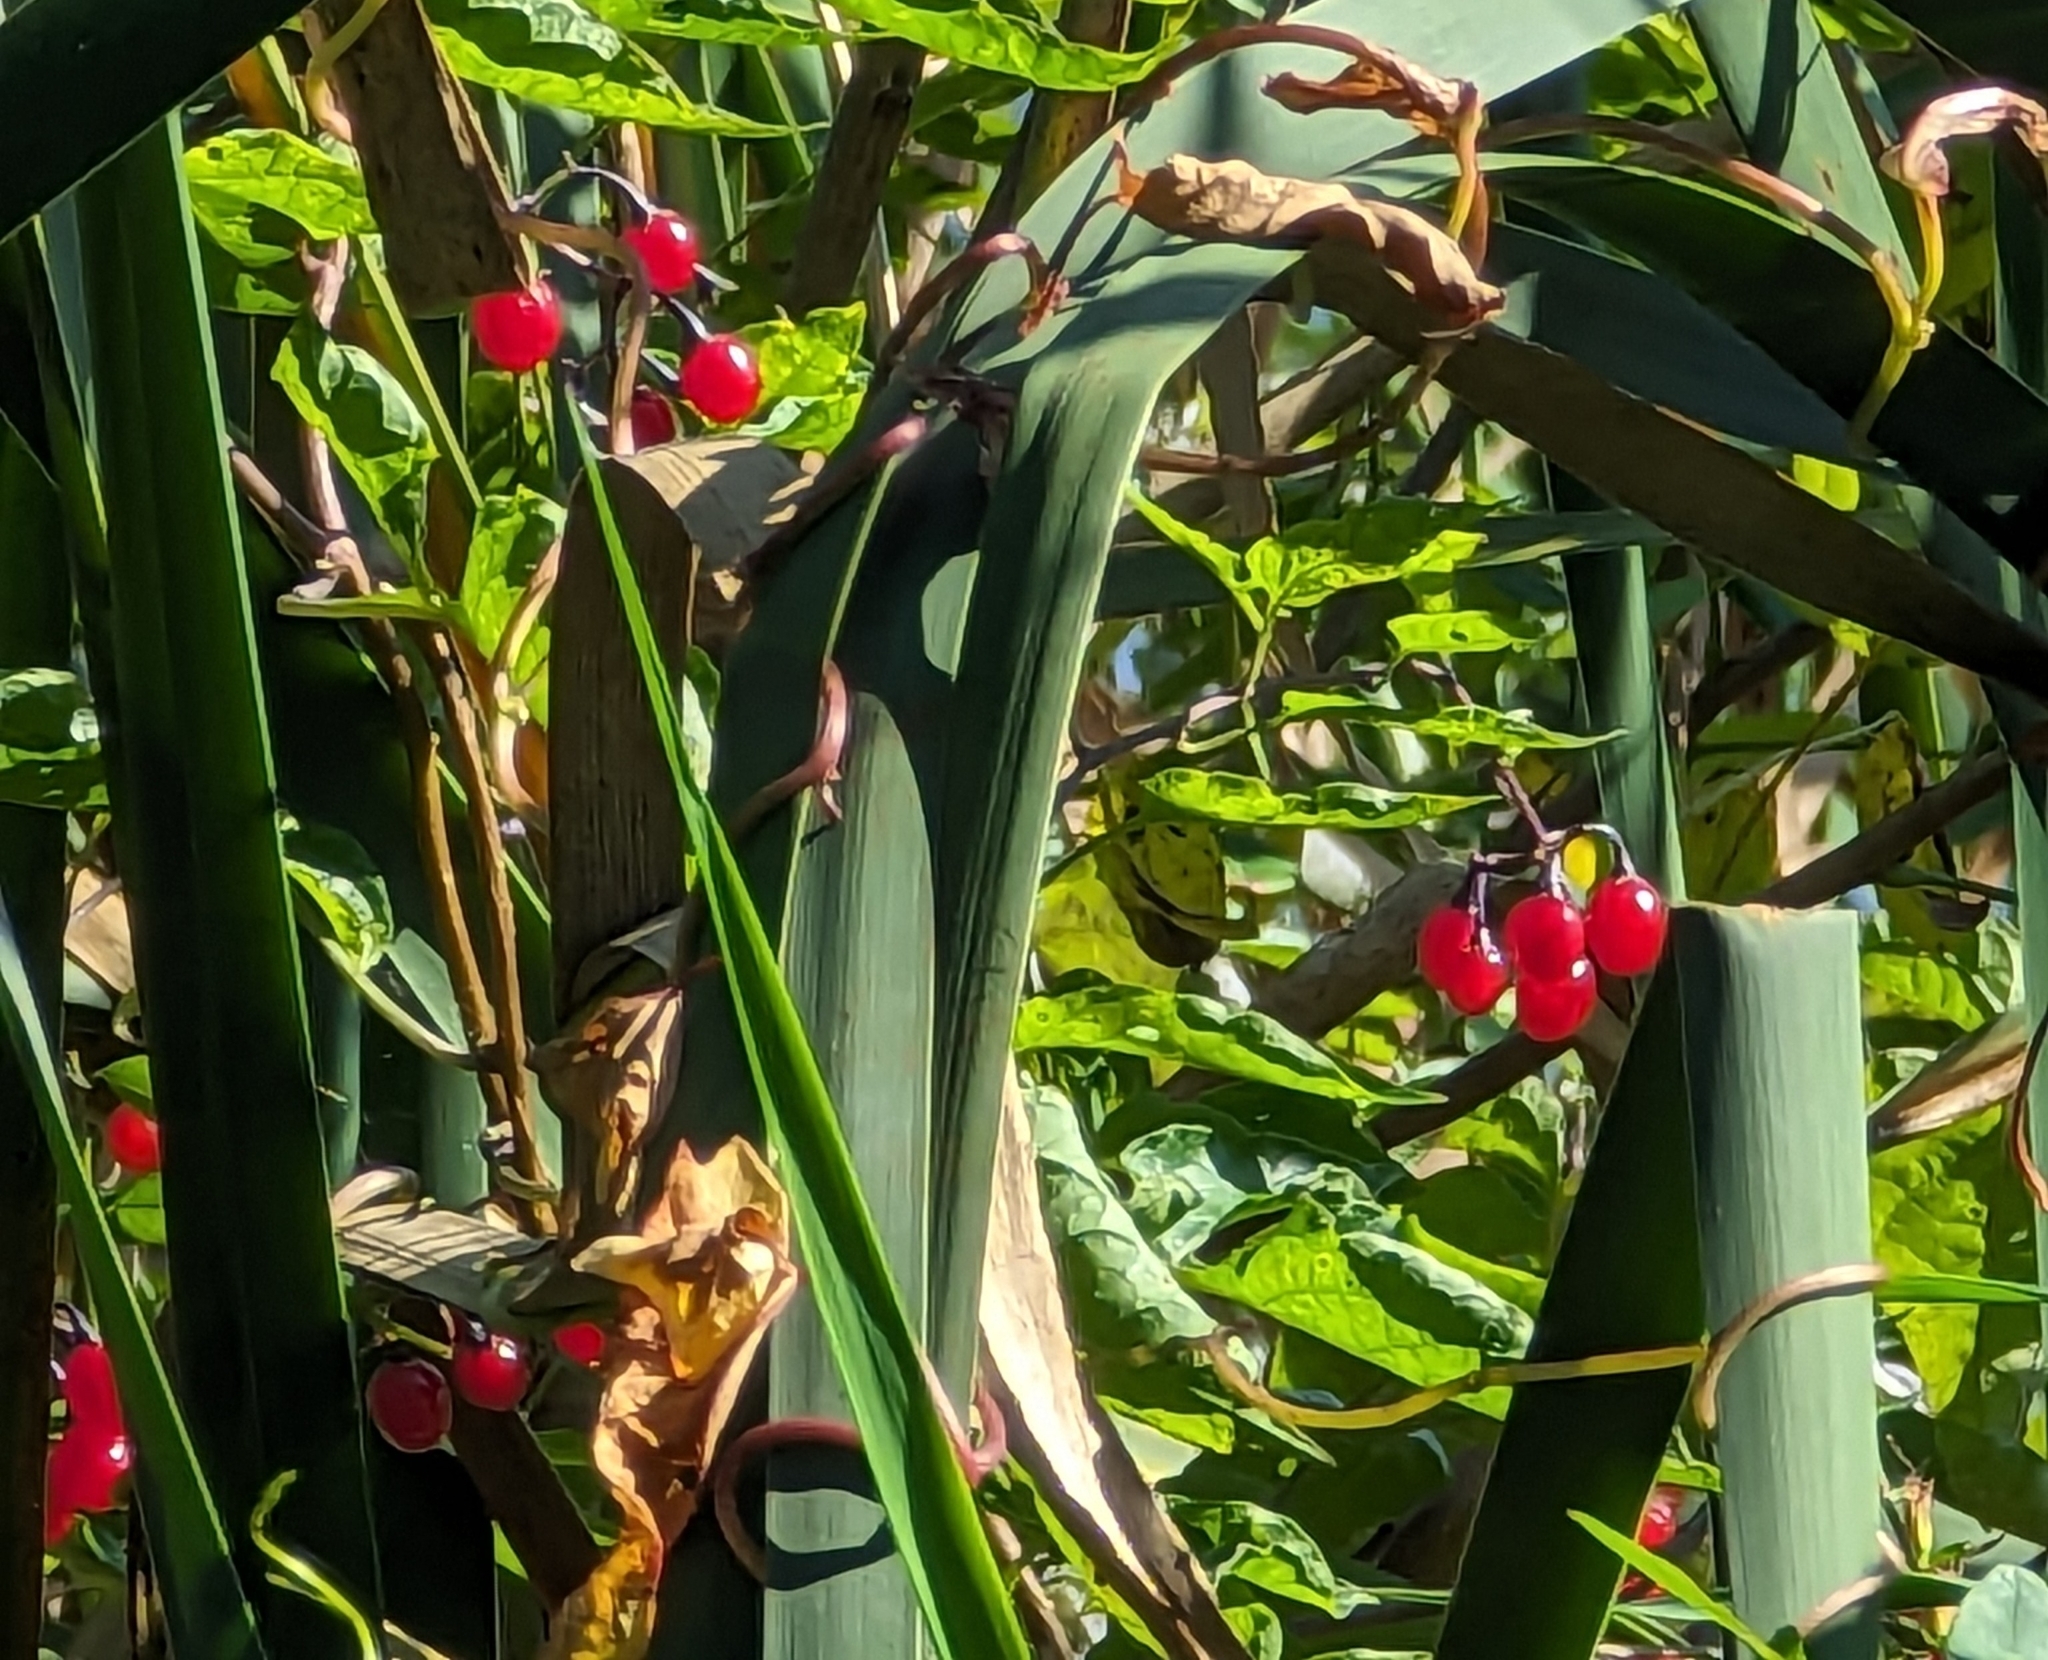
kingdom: Plantae
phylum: Tracheophyta
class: Magnoliopsida
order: Solanales
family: Solanaceae
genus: Solanum
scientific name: Solanum dulcamara
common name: Climbing nightshade
